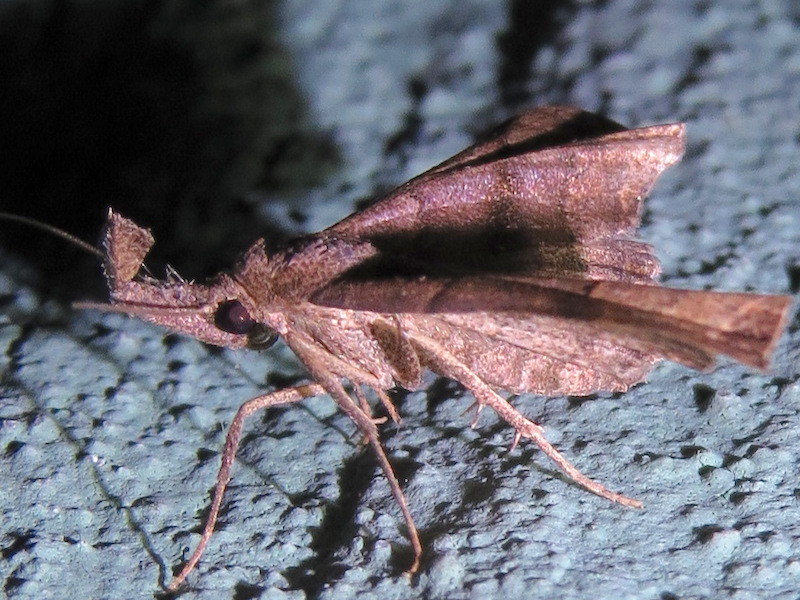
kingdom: Animalia
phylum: Arthropoda
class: Insecta
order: Lepidoptera
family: Erebidae
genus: Palthis
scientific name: Palthis asopialis
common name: Faint-spotted palthis moth
